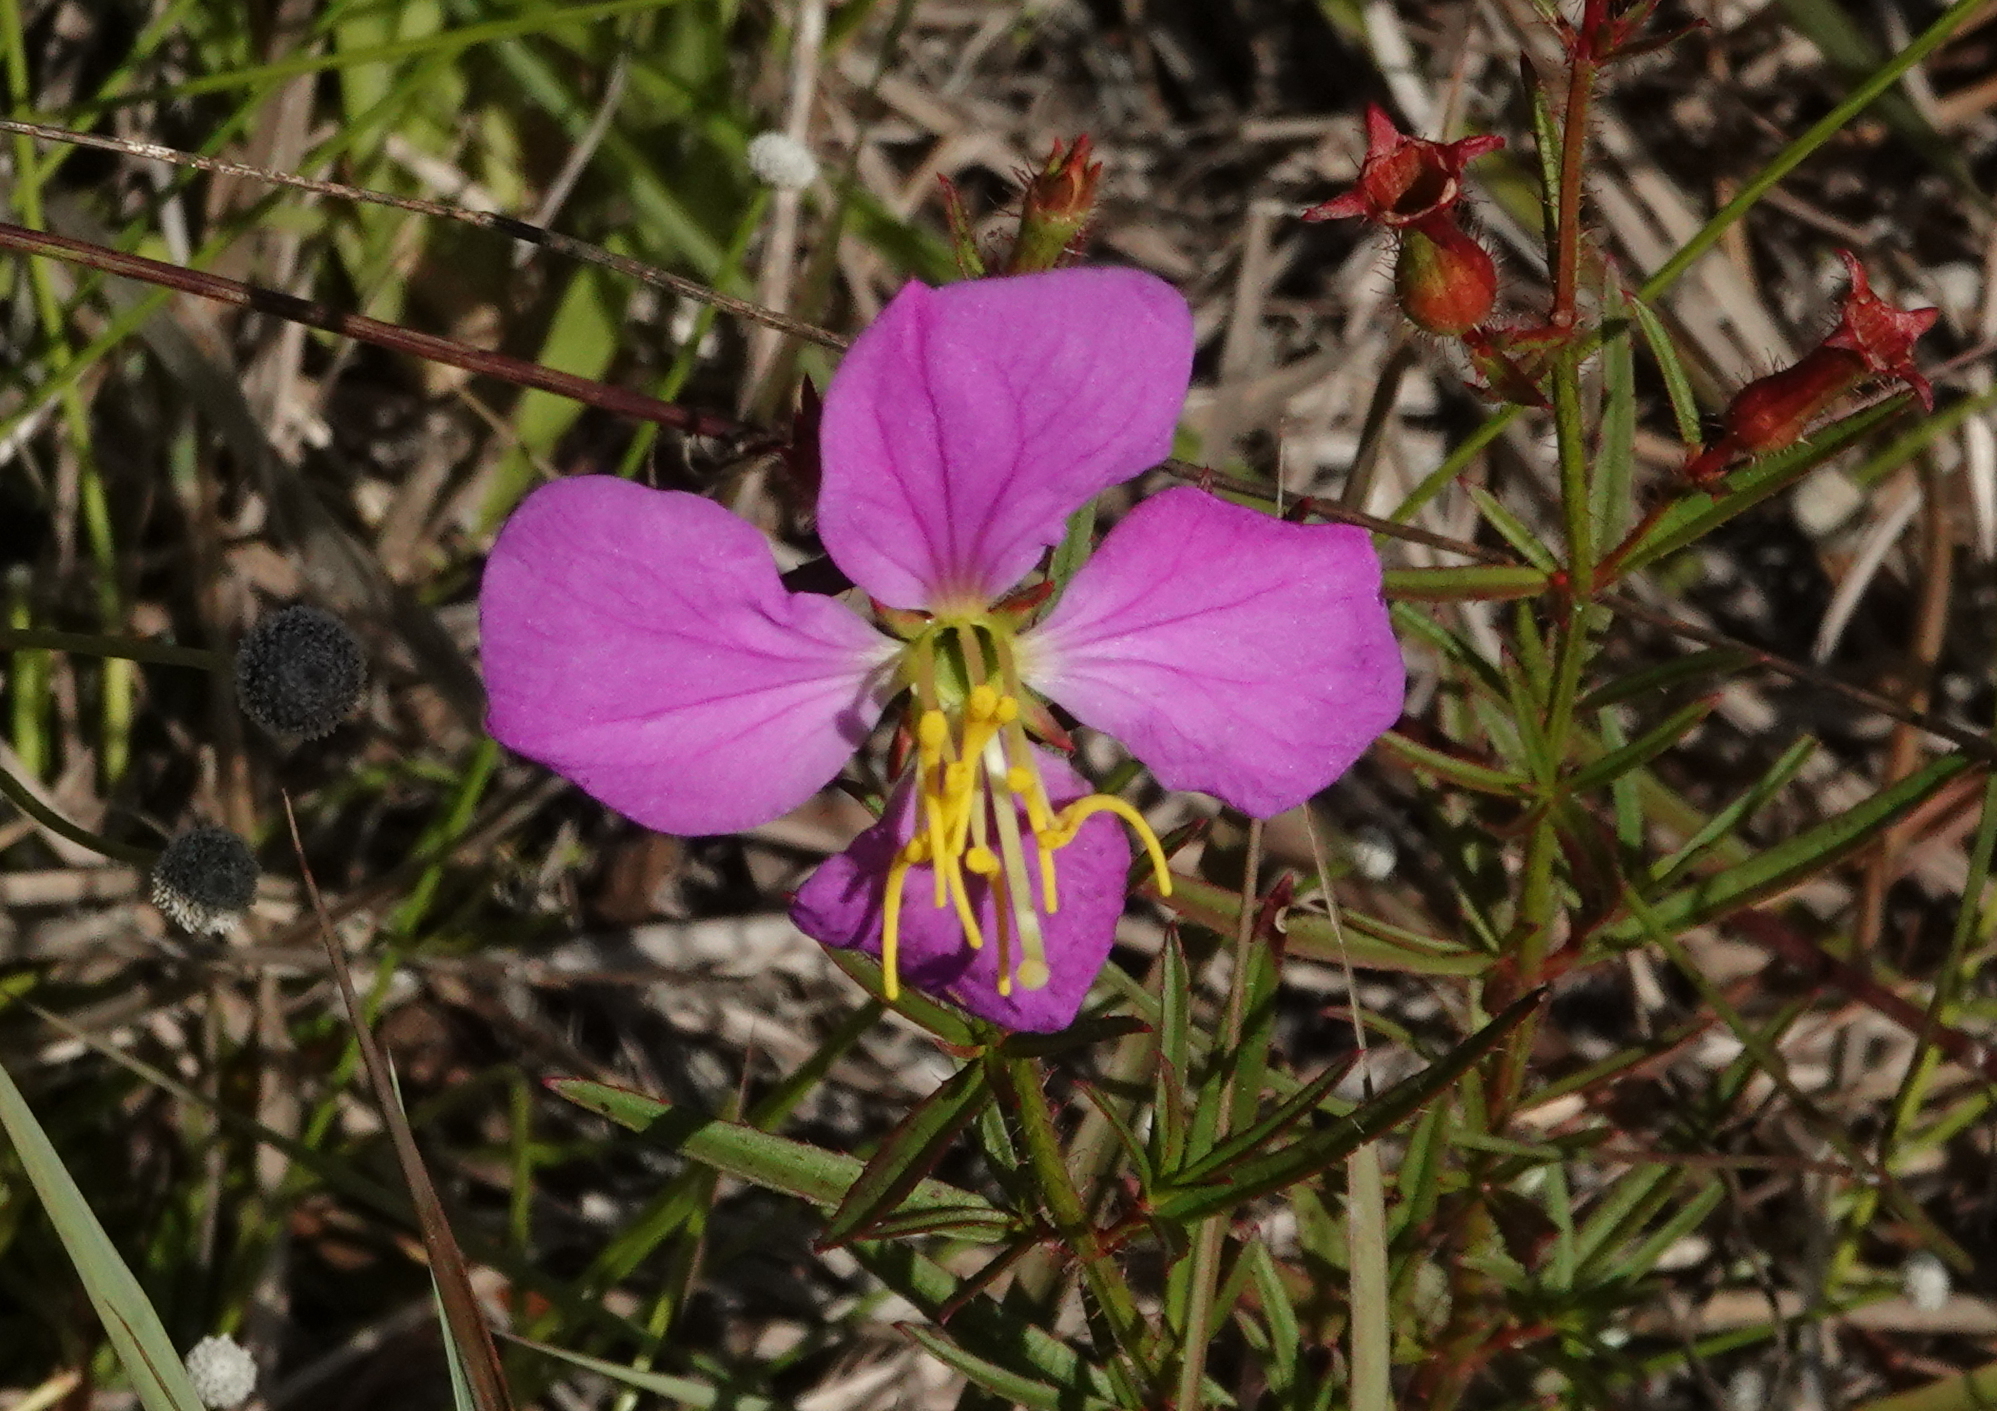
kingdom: Plantae
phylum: Tracheophyta
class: Magnoliopsida
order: Myrtales
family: Melastomataceae
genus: Rhexia
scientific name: Rhexia cubensis
